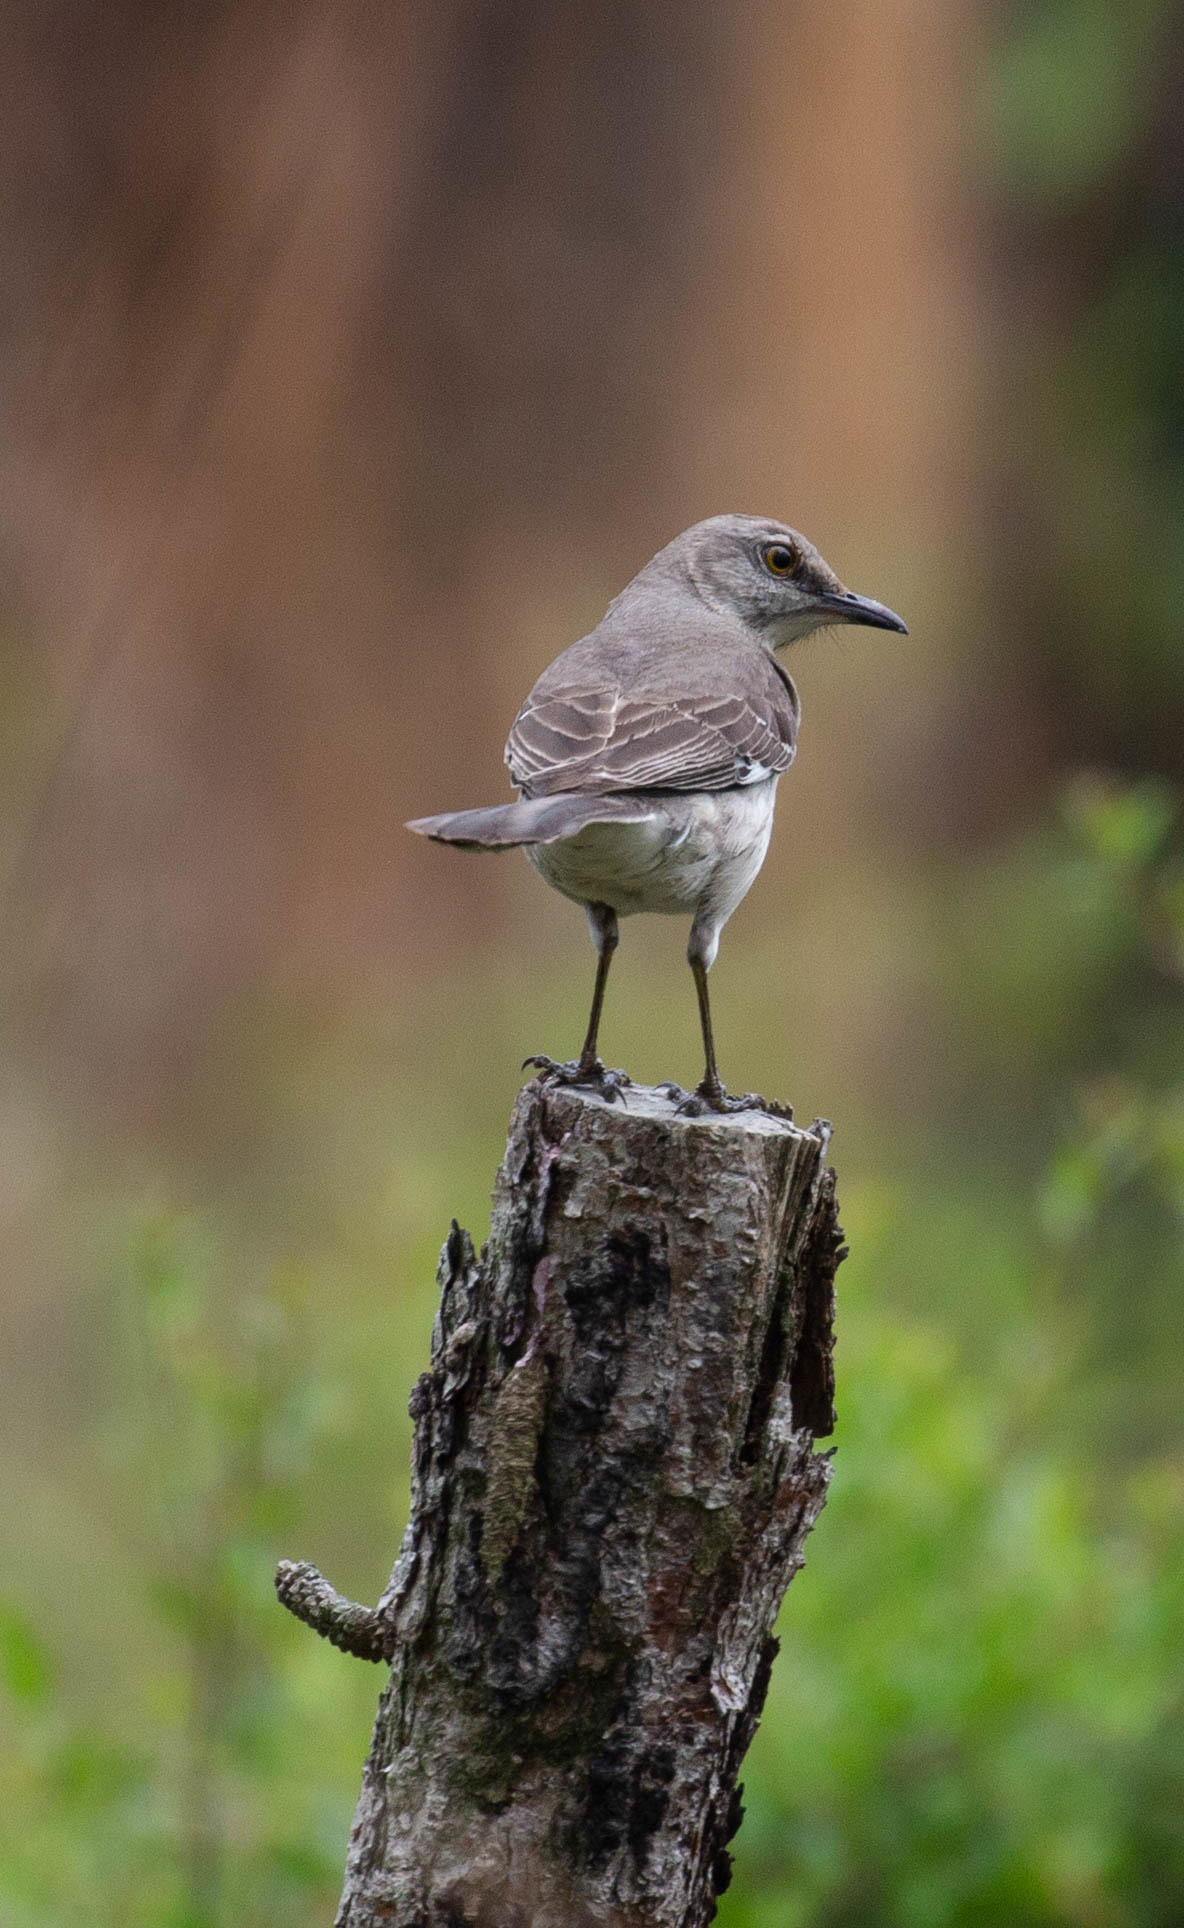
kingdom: Animalia
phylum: Chordata
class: Aves
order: Passeriformes
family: Mimidae
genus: Mimus
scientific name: Mimus polyglottos
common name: Northern mockingbird
